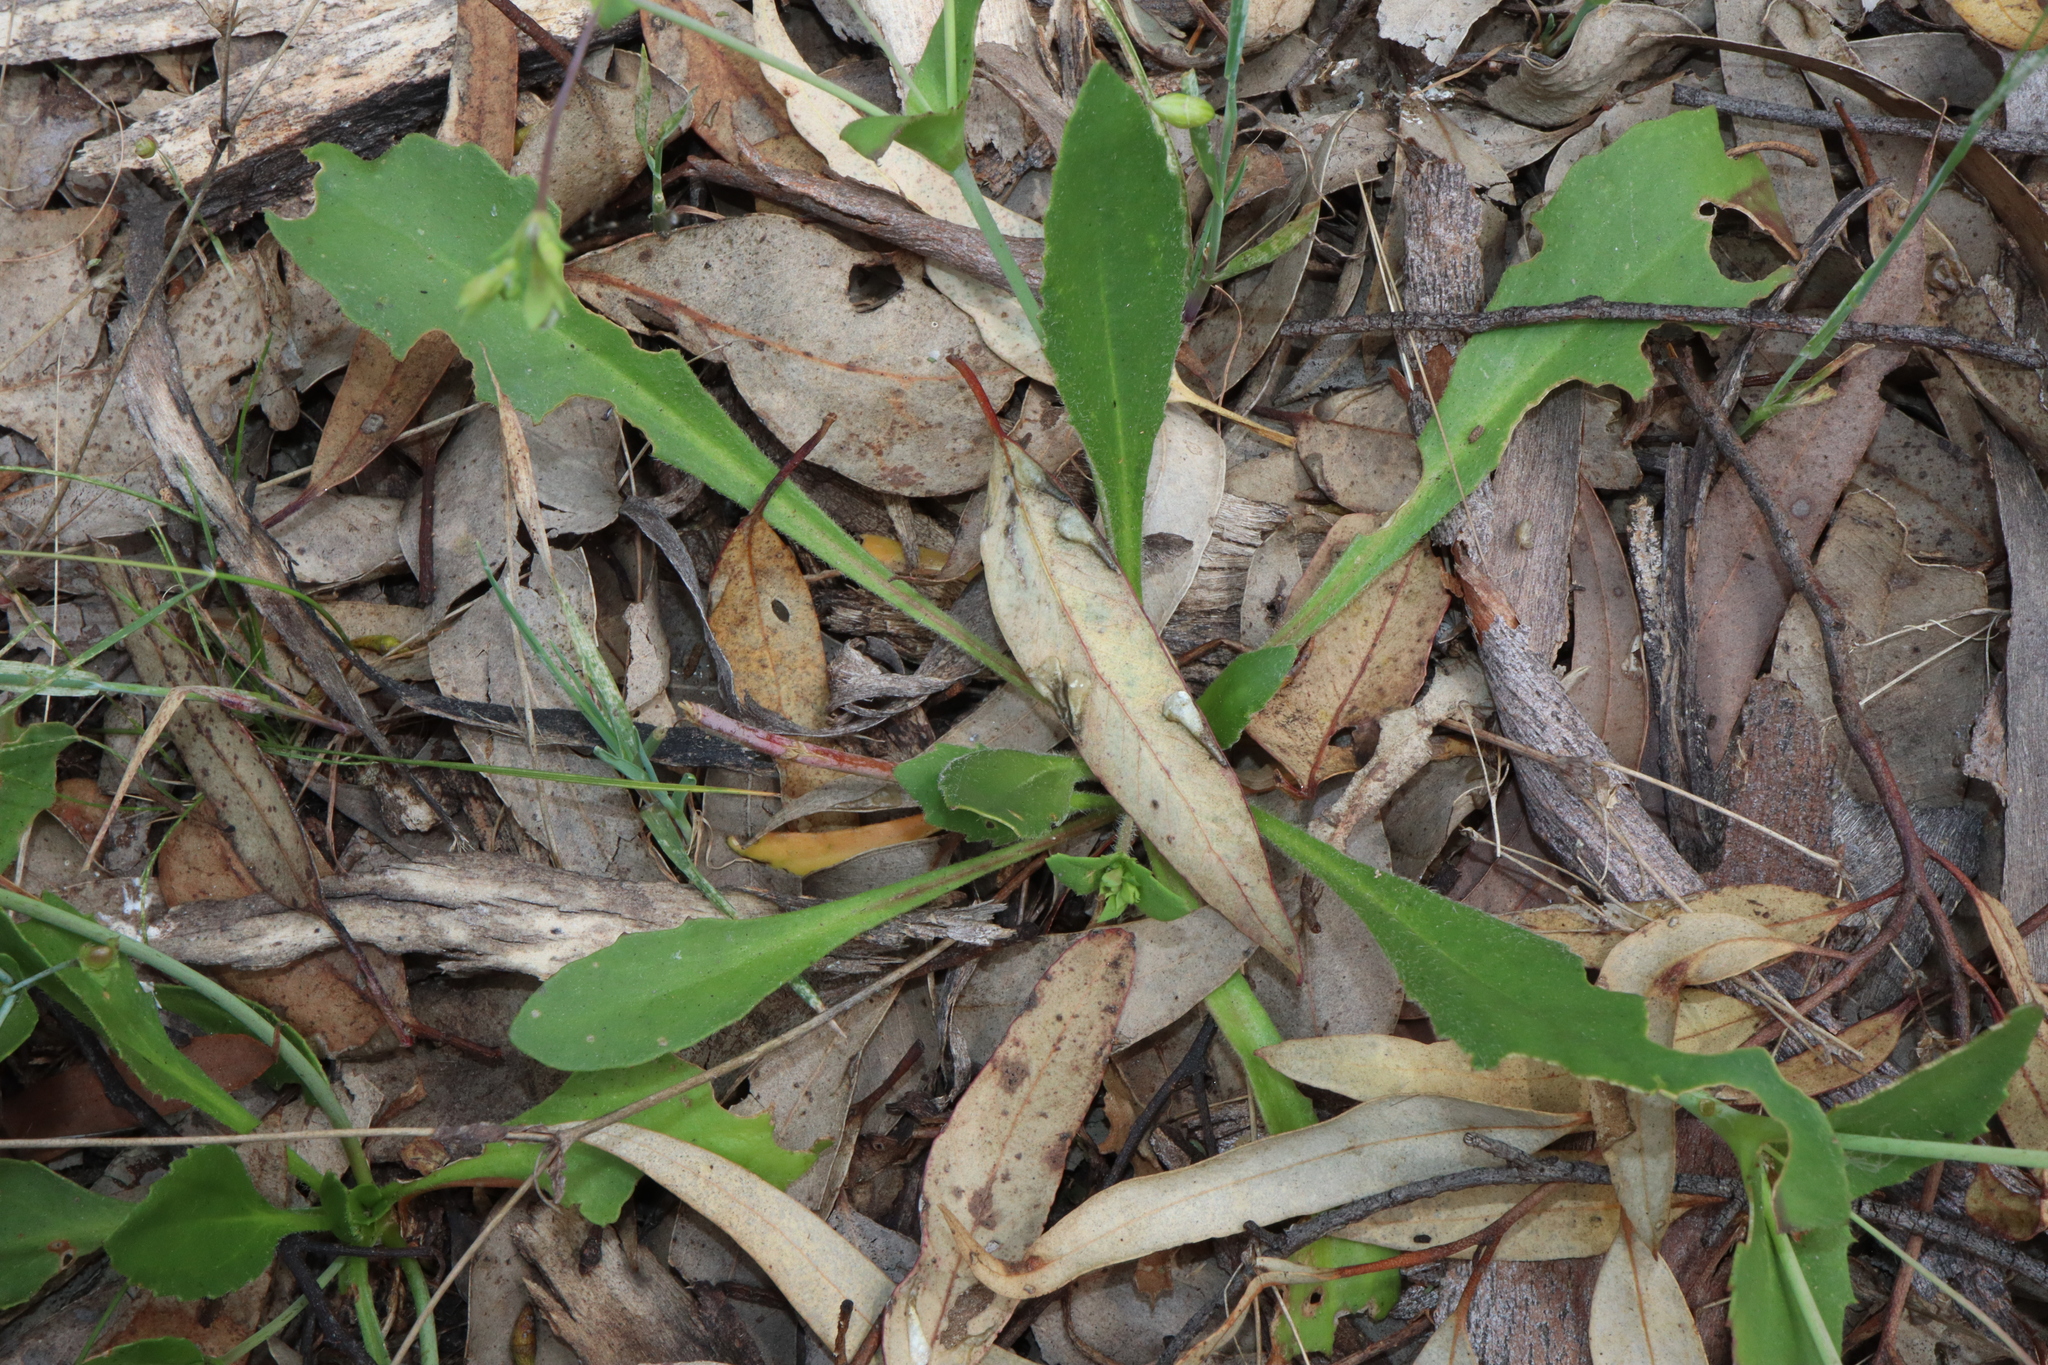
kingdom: Plantae
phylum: Tracheophyta
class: Magnoliopsida
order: Asterales
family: Goodeniaceae
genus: Goodenia
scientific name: Goodenia trinervis
